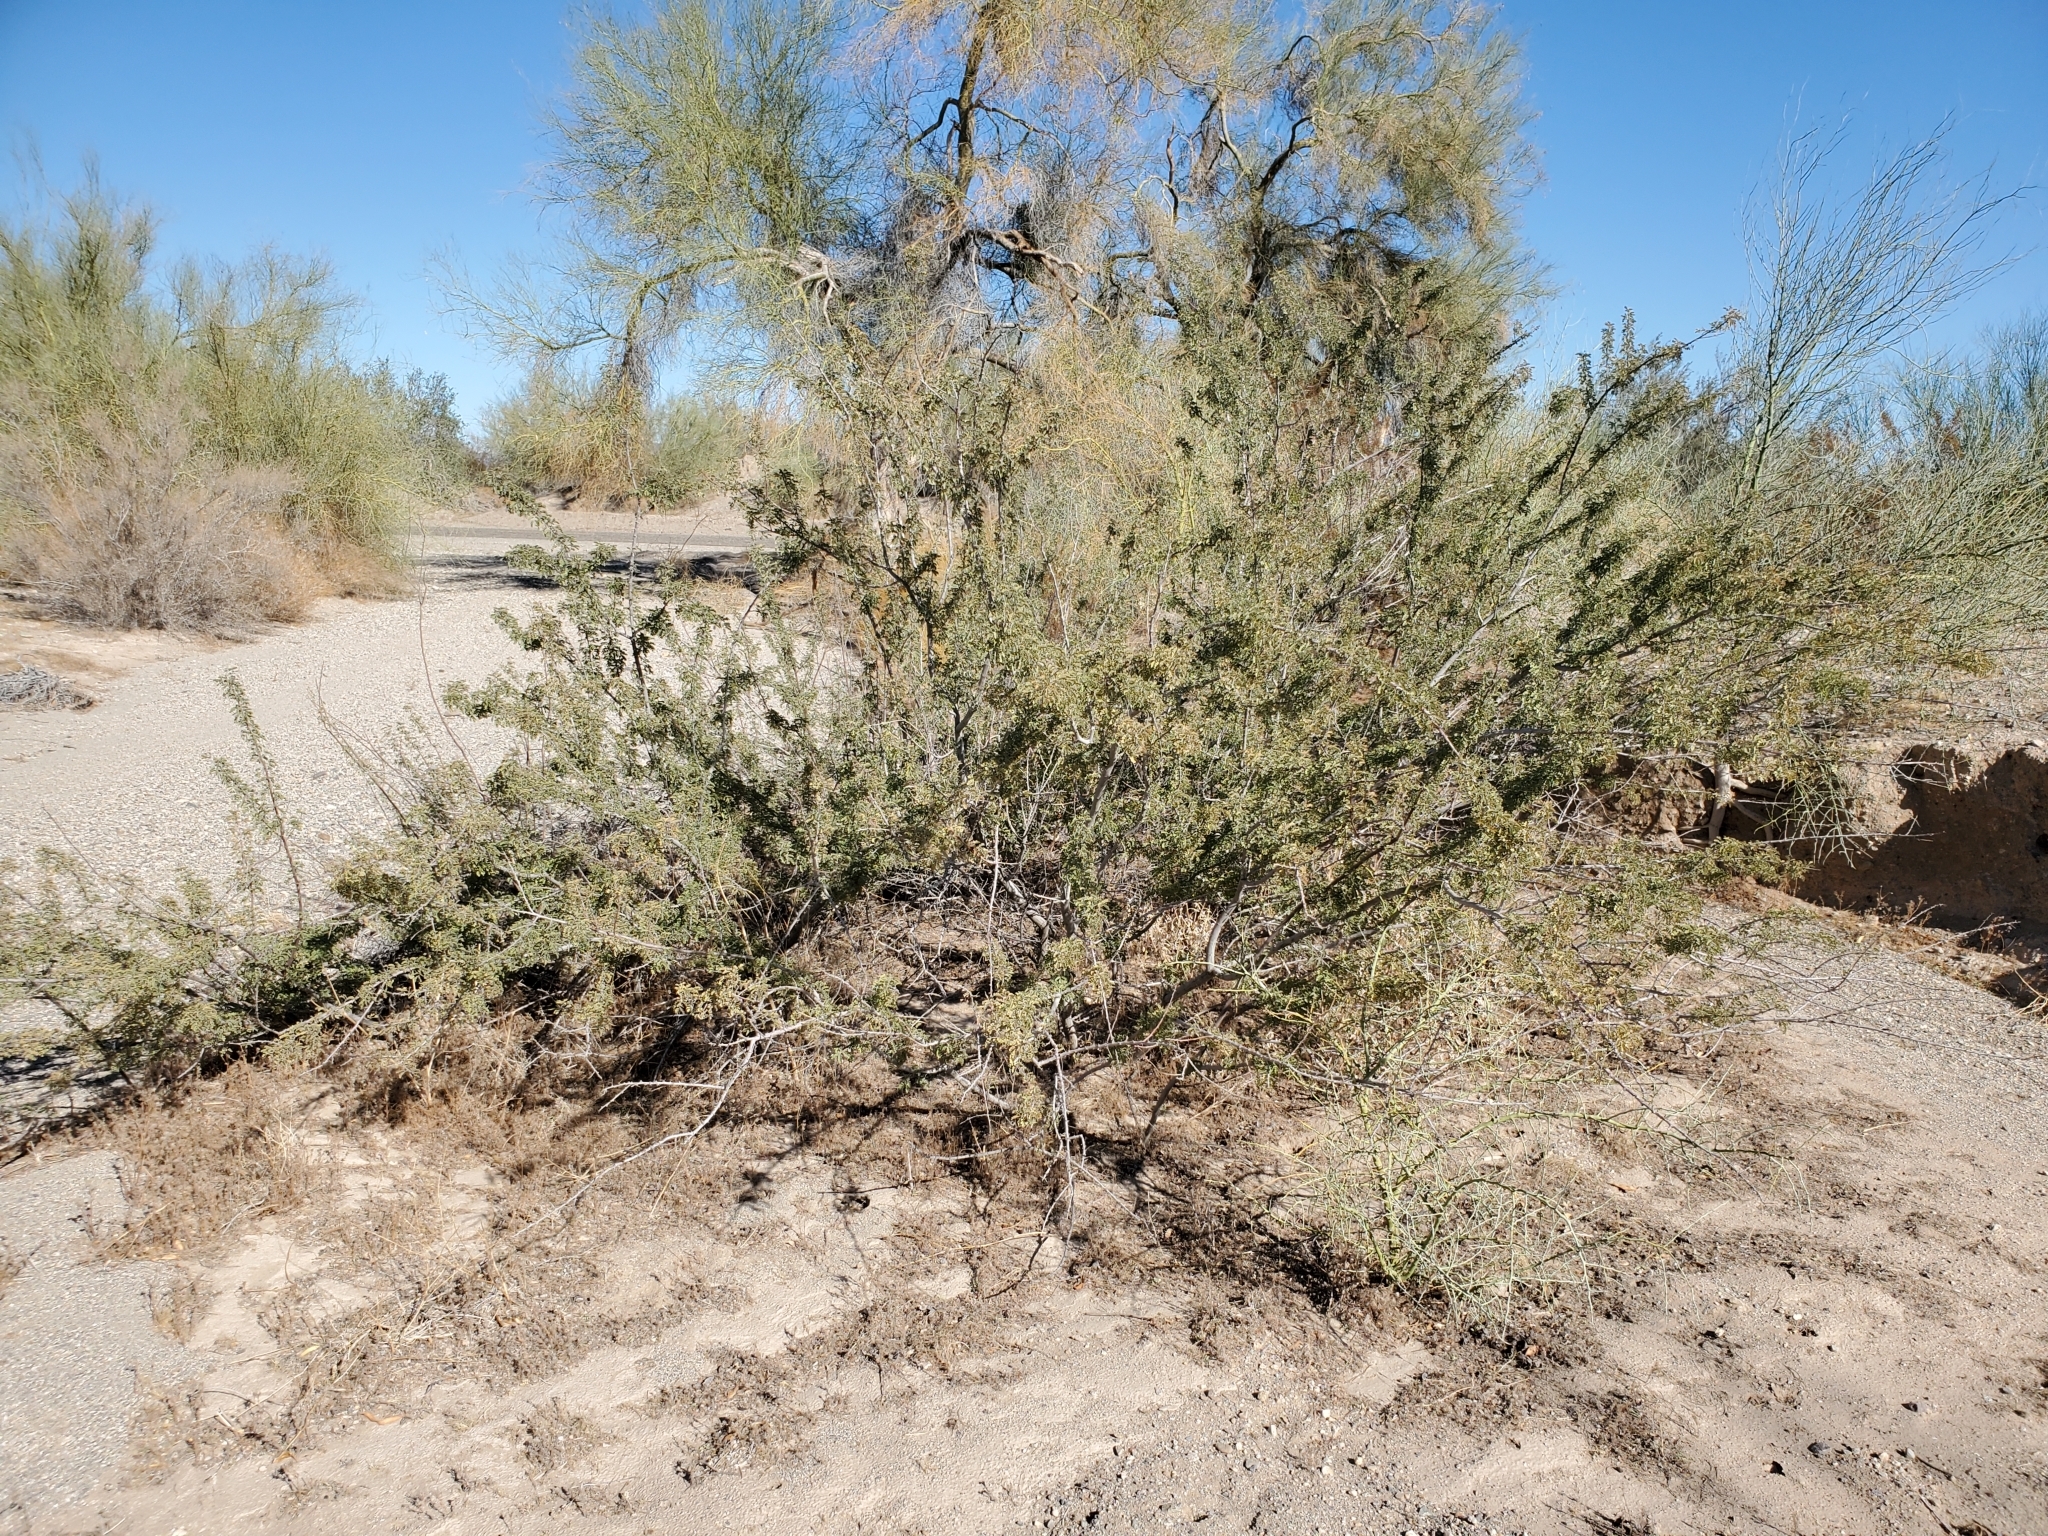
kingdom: Plantae
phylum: Tracheophyta
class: Magnoliopsida
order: Fabales
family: Fabaceae
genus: Senegalia
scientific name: Senegalia greggii
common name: Texas-mimosa
